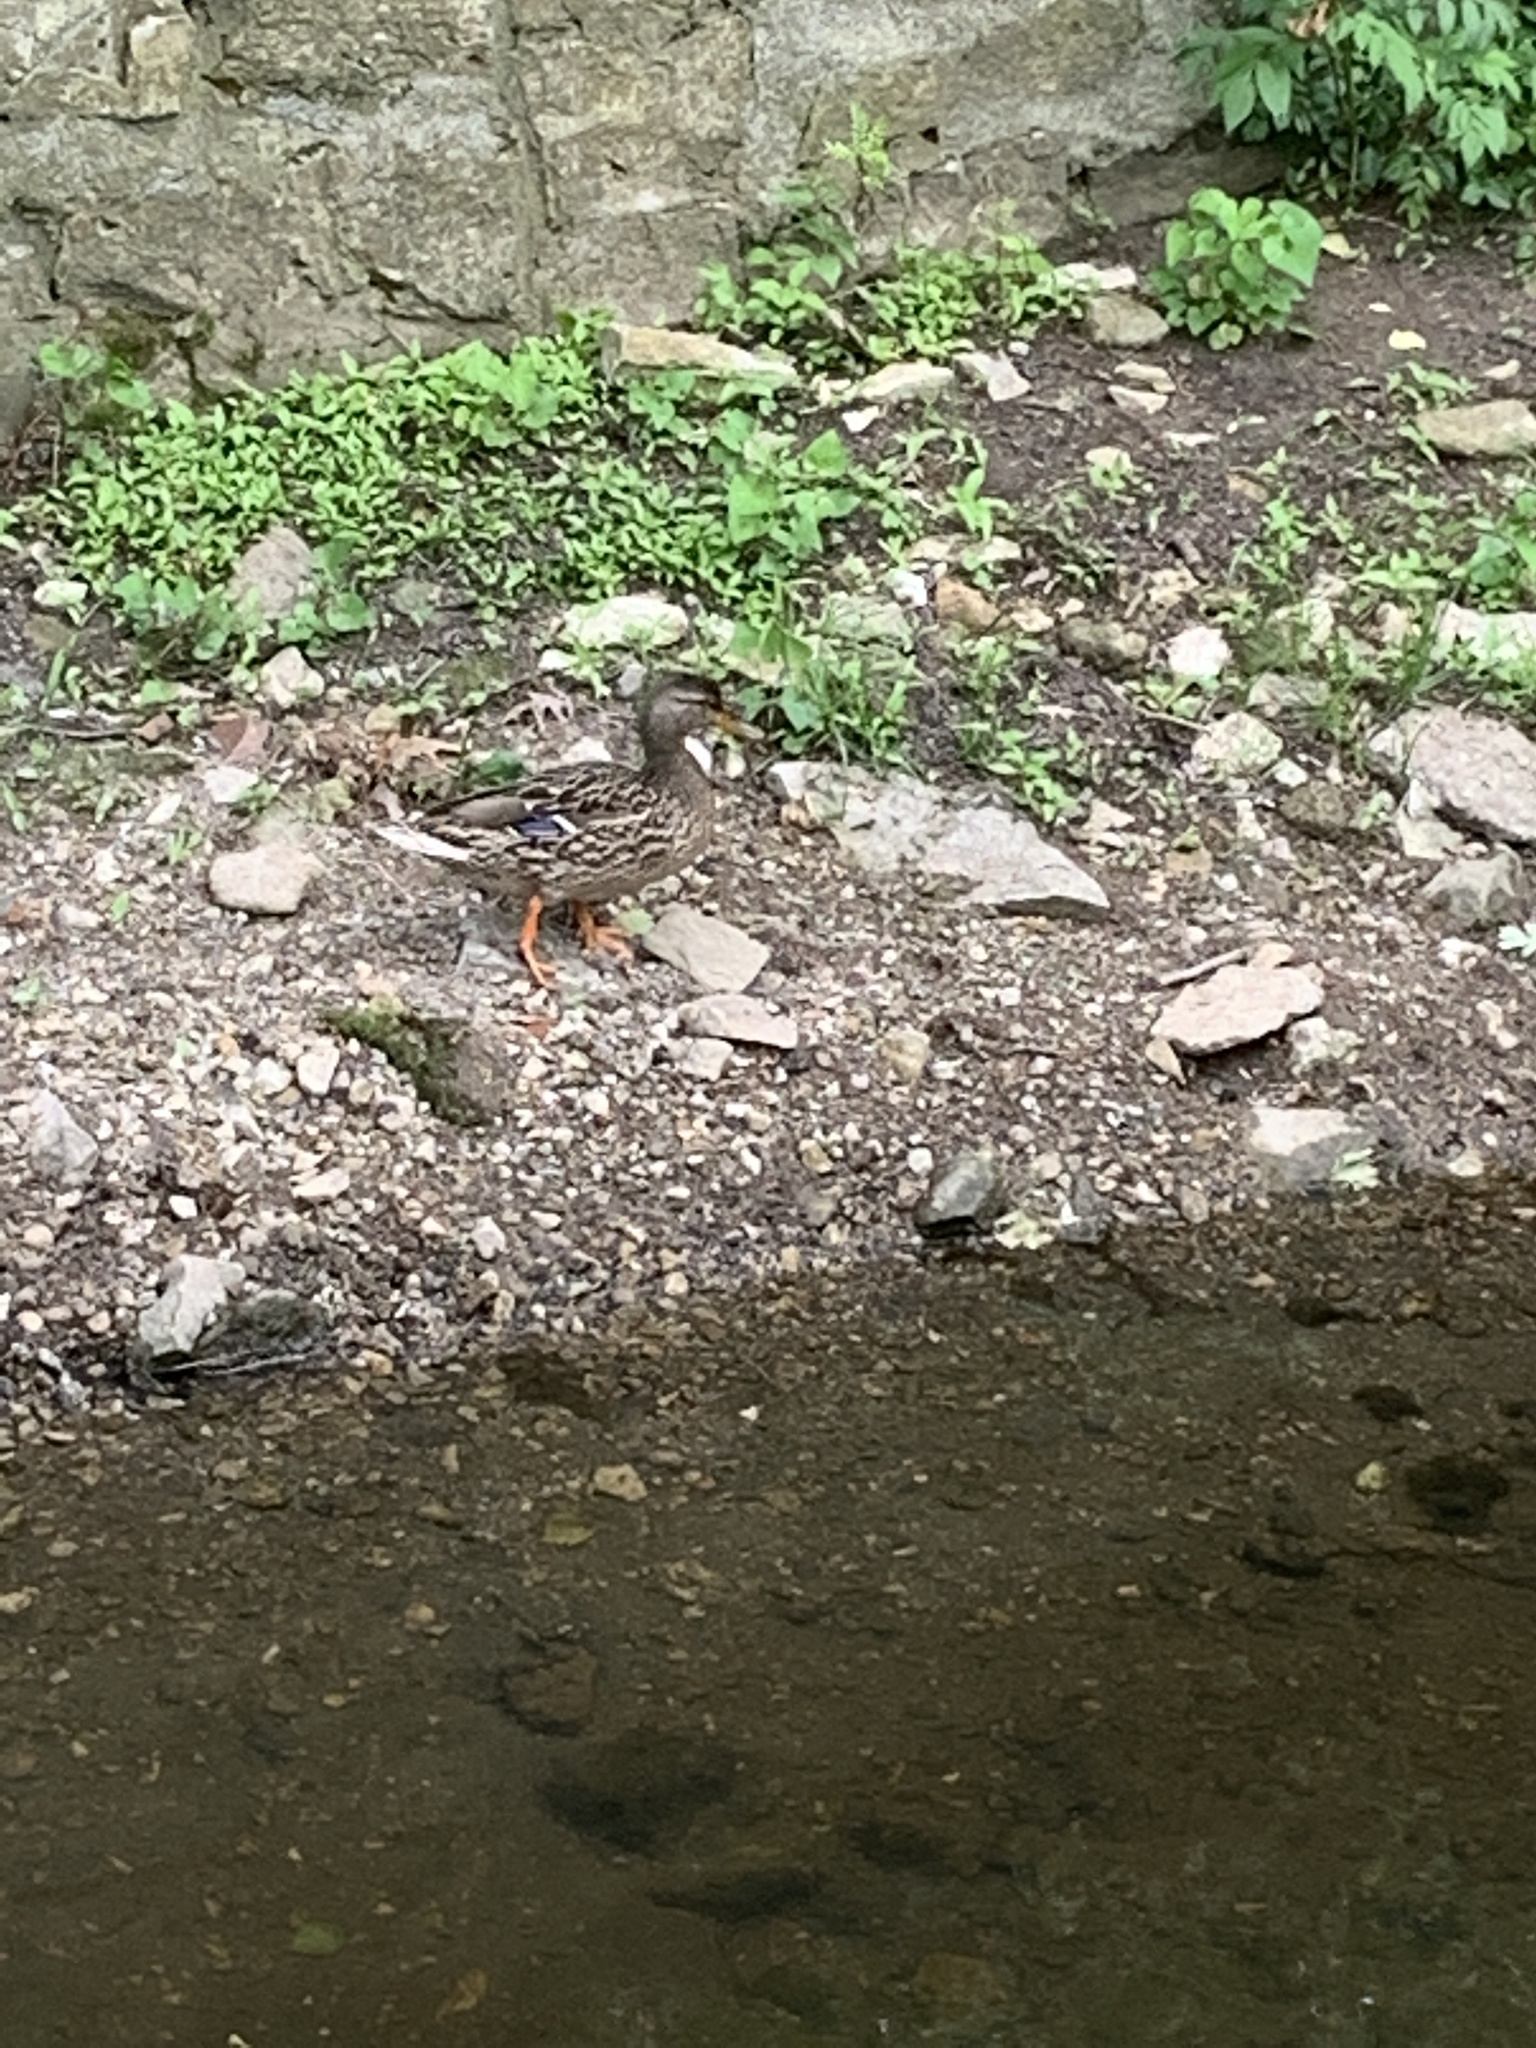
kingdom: Animalia
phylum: Chordata
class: Aves
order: Anseriformes
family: Anatidae
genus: Anas
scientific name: Anas platyrhynchos
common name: Mallard
